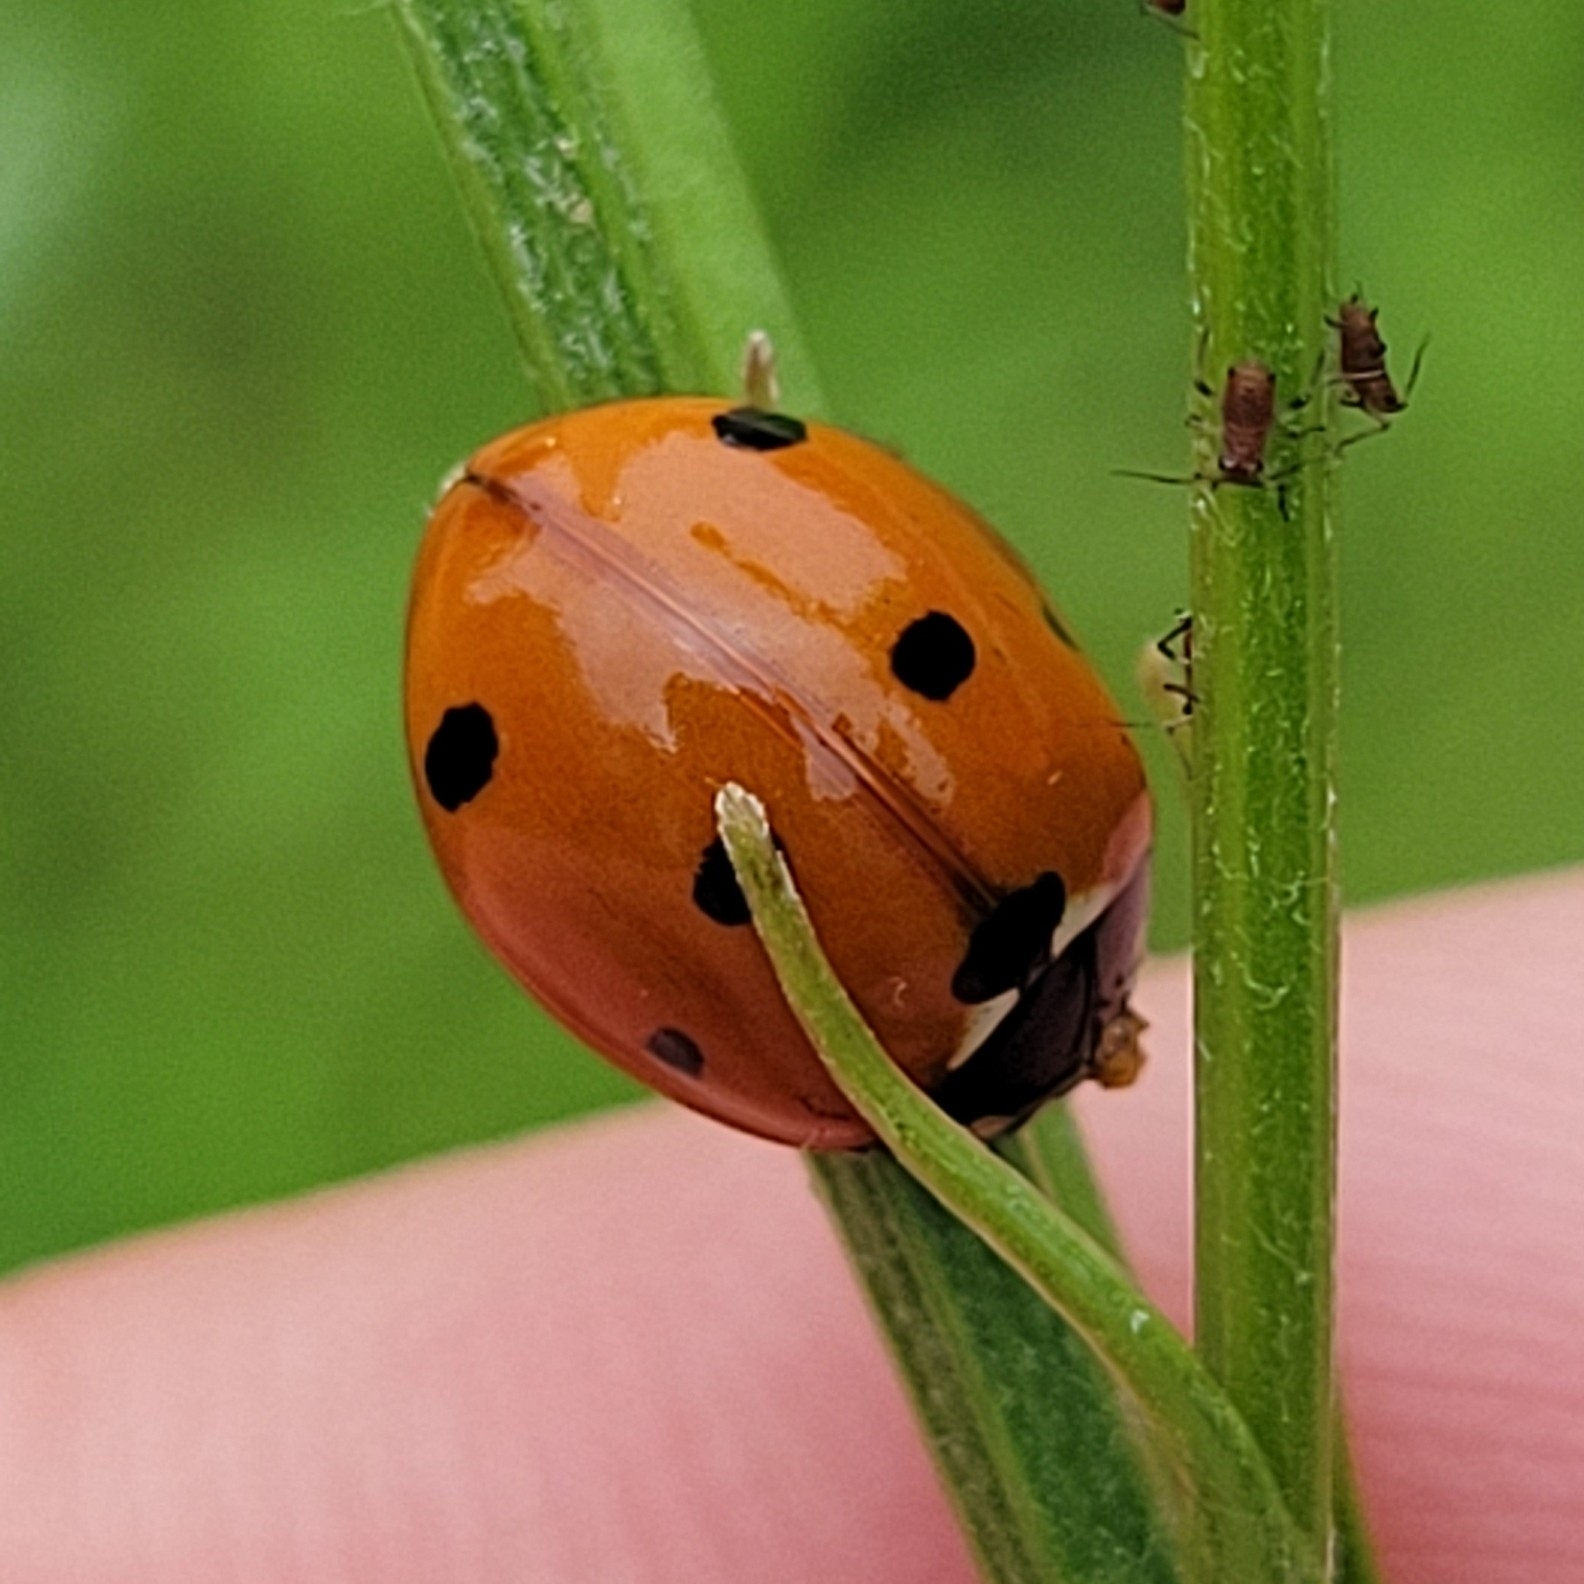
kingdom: Animalia
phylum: Arthropoda
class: Insecta
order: Coleoptera
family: Coccinellidae
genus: Coccinella
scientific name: Coccinella septempunctata
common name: Sevenspotted lady beetle
